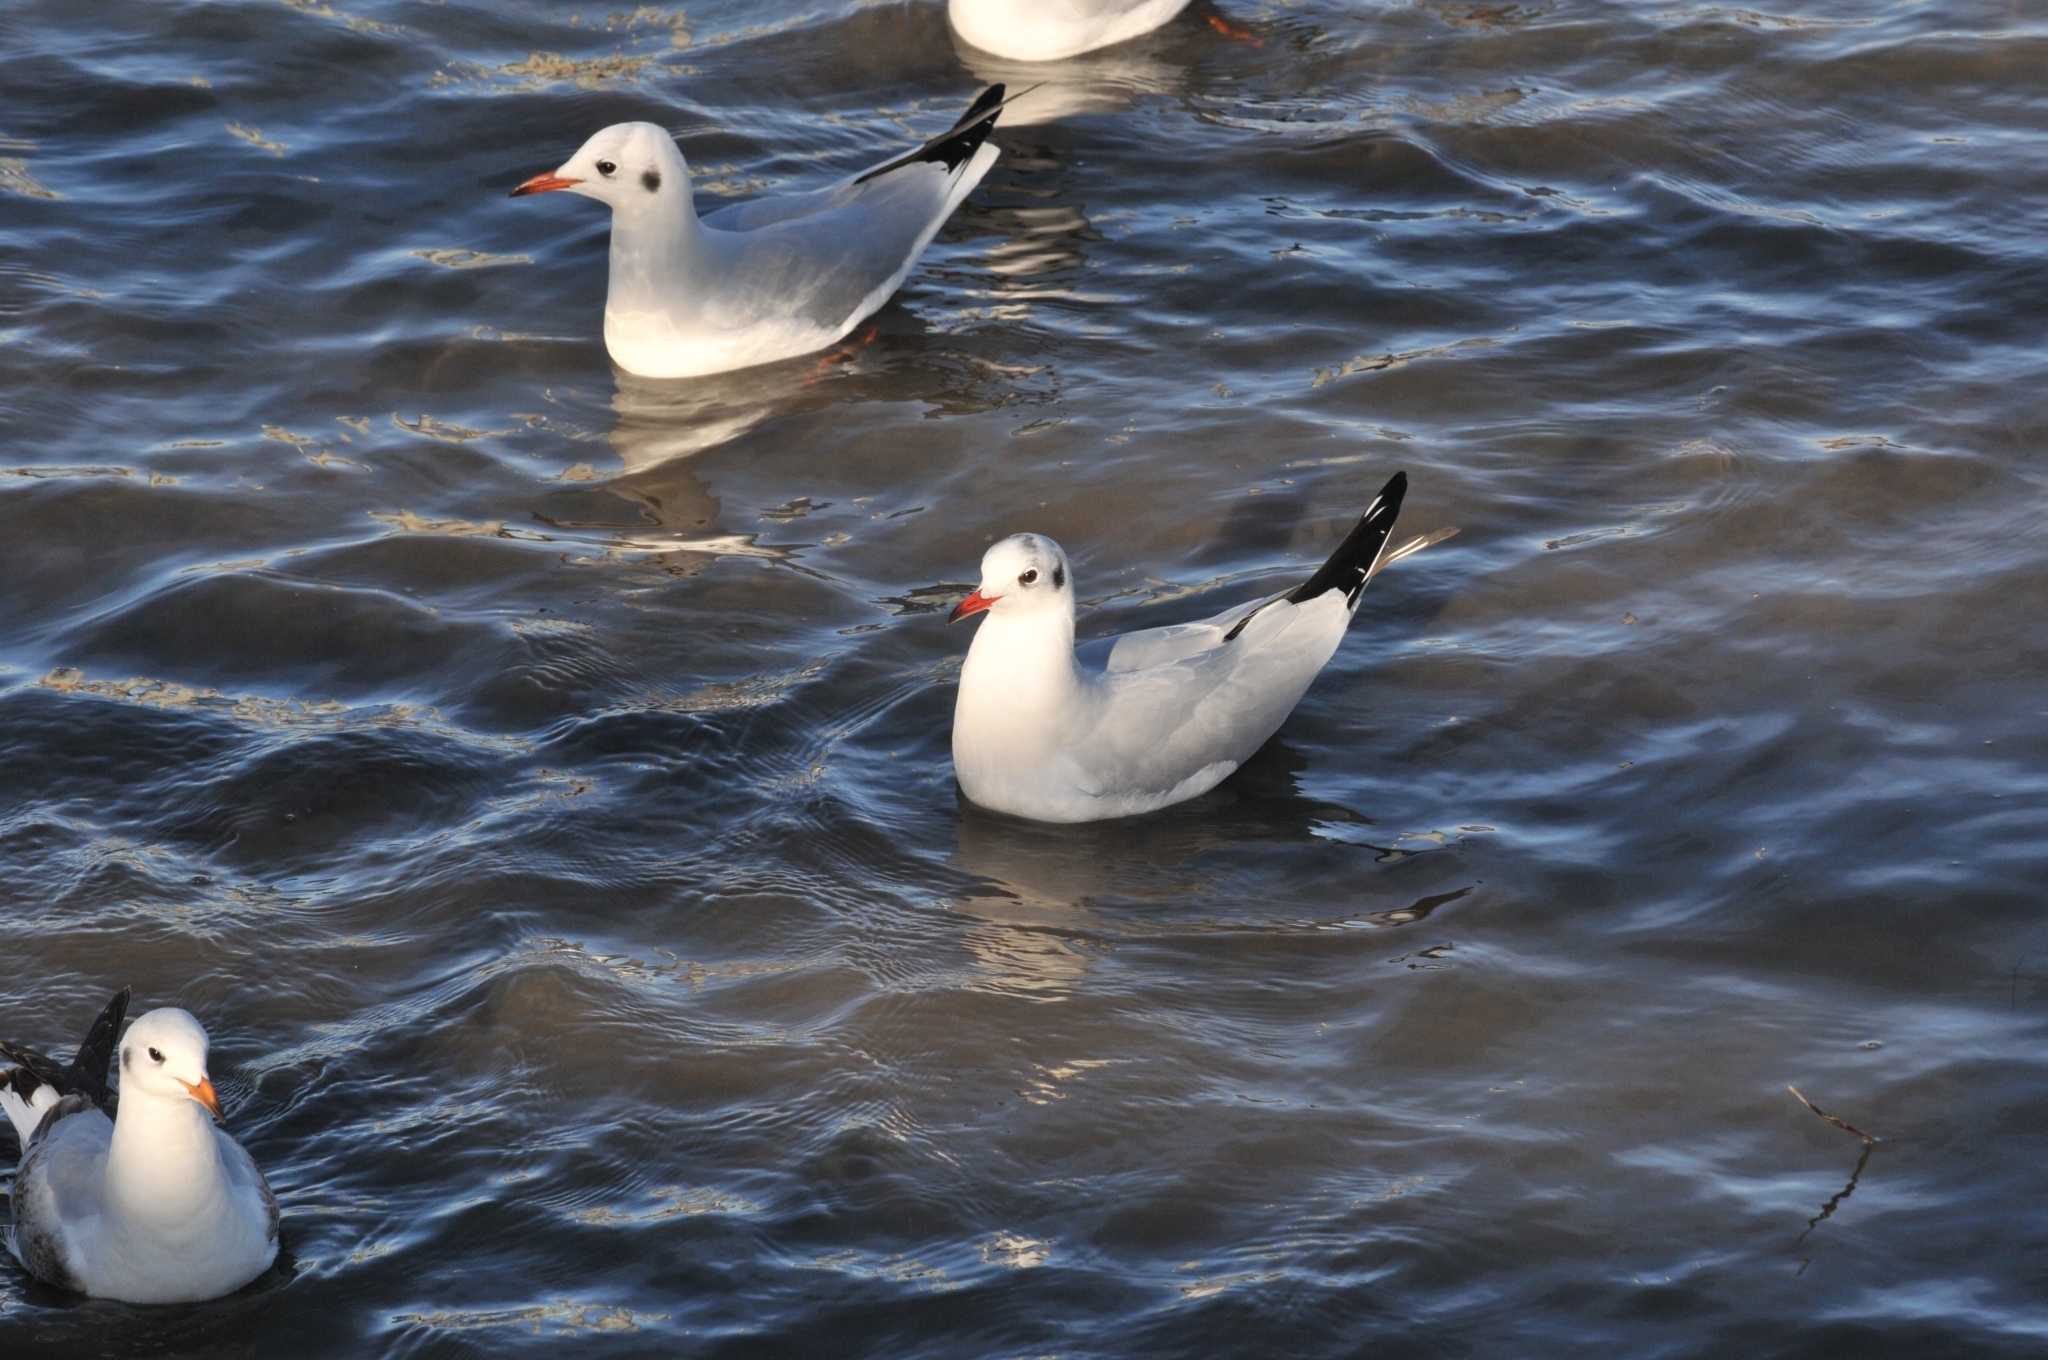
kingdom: Animalia
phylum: Chordata
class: Aves
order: Charadriiformes
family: Laridae
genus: Chroicocephalus
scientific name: Chroicocephalus ridibundus
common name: Black-headed gull
